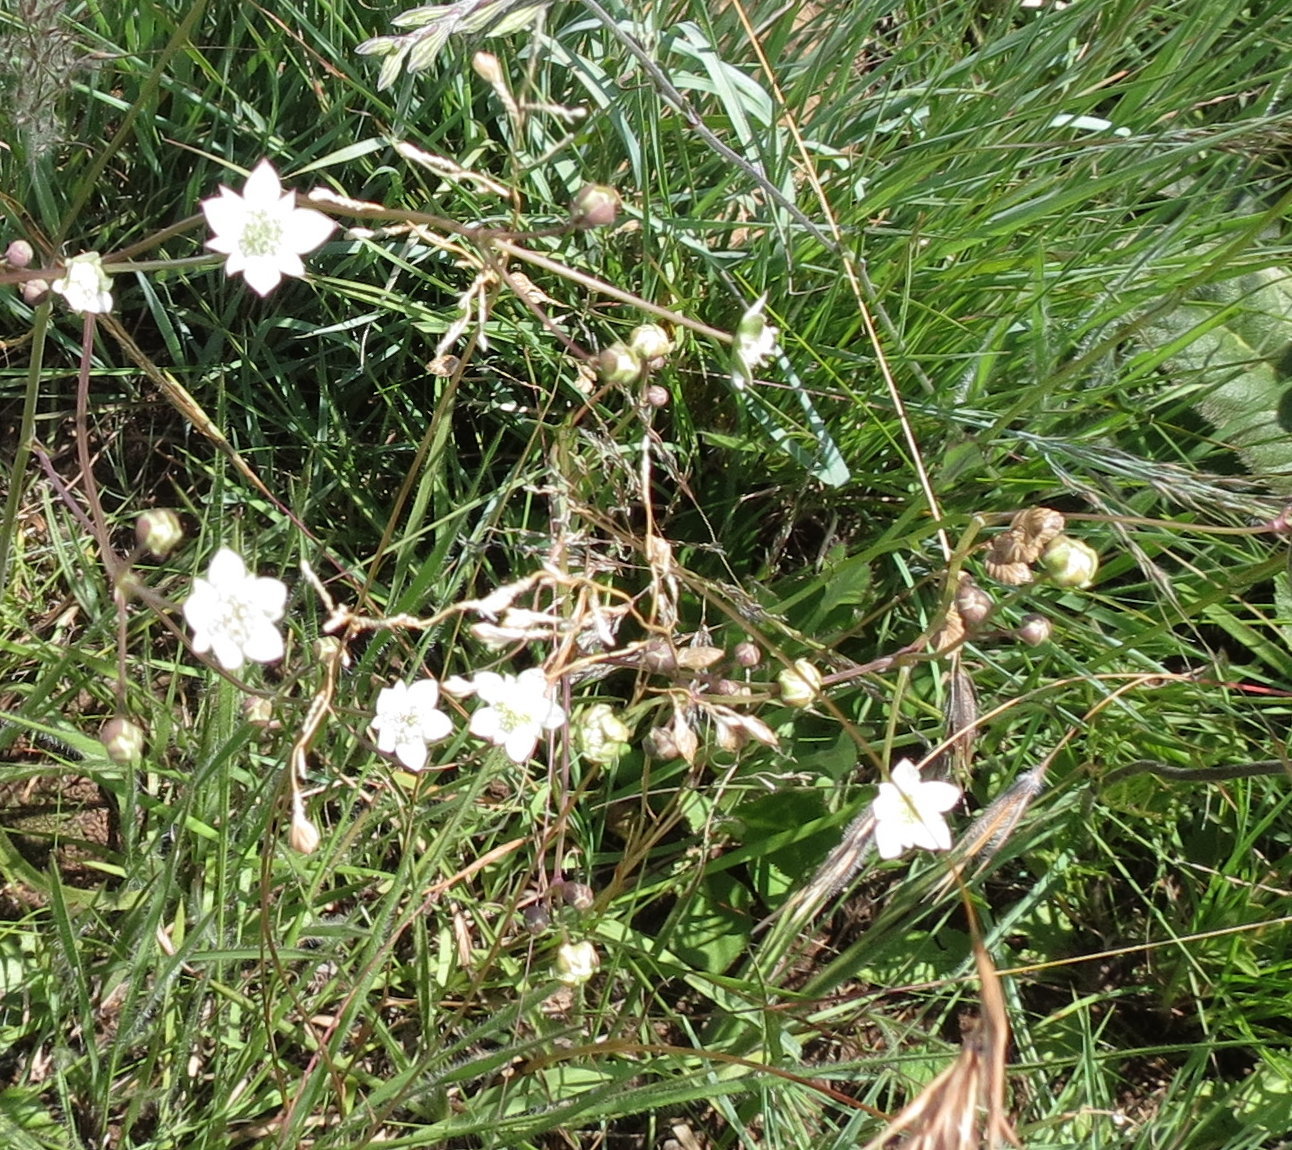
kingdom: Plantae
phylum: Tracheophyta
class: Magnoliopsida
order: Apiales
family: Apiaceae
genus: Alepidea
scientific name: Alepidea natalensis
